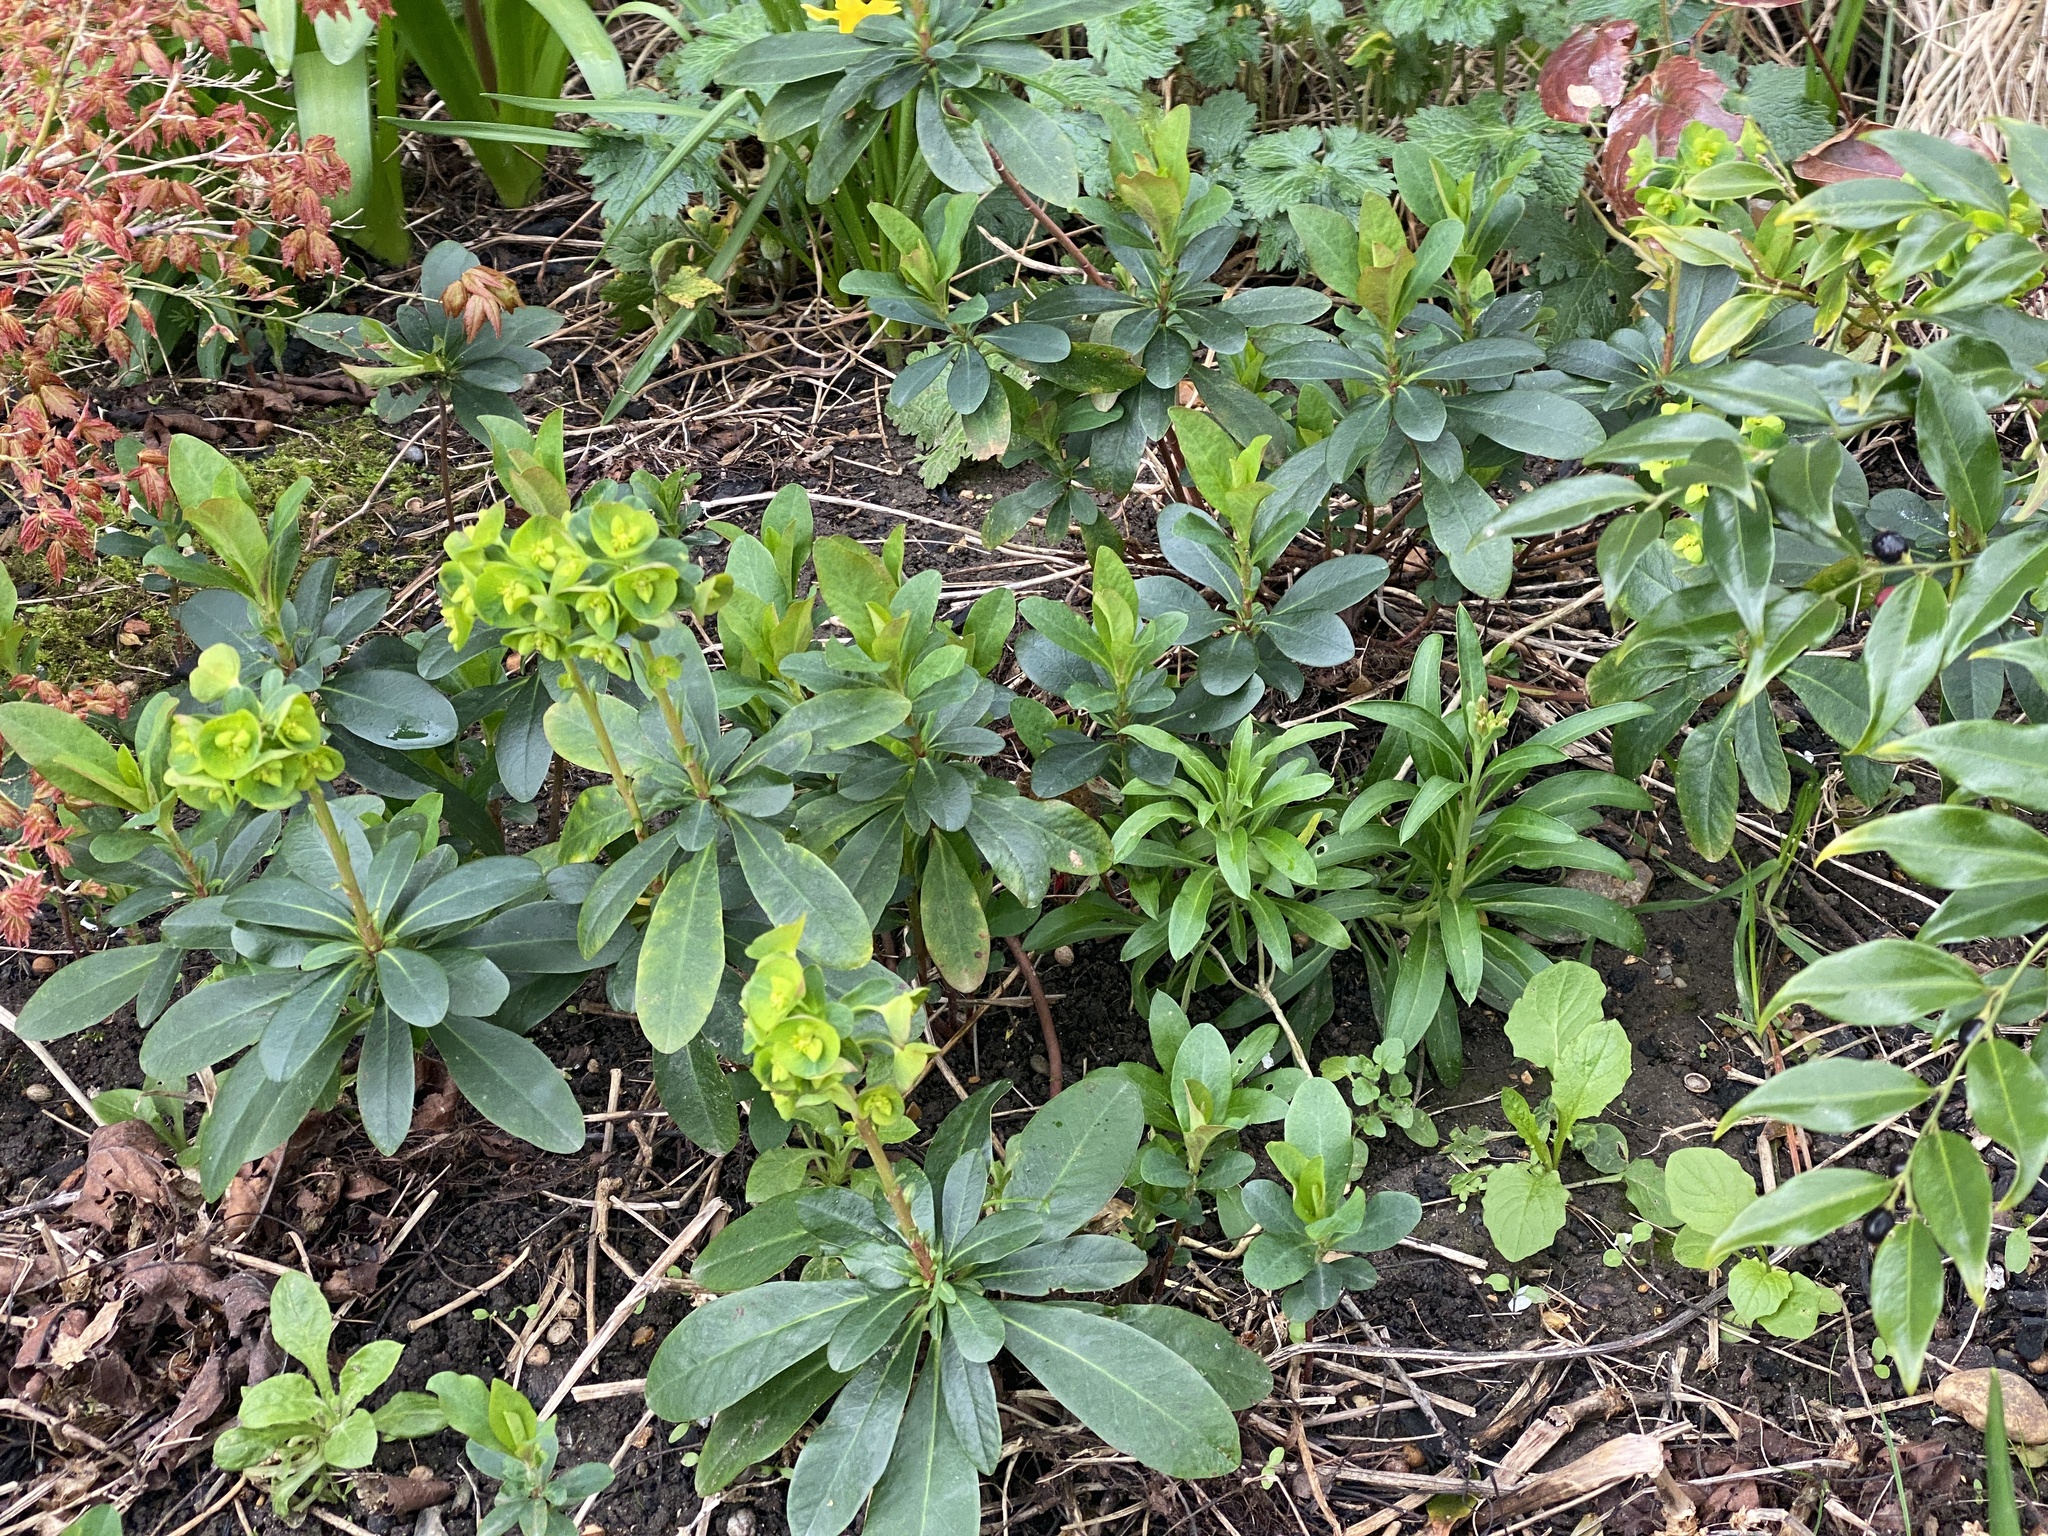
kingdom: Plantae
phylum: Tracheophyta
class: Magnoliopsida
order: Malpighiales
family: Euphorbiaceae
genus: Euphorbia
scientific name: Euphorbia amygdaloides
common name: Wood spurge
